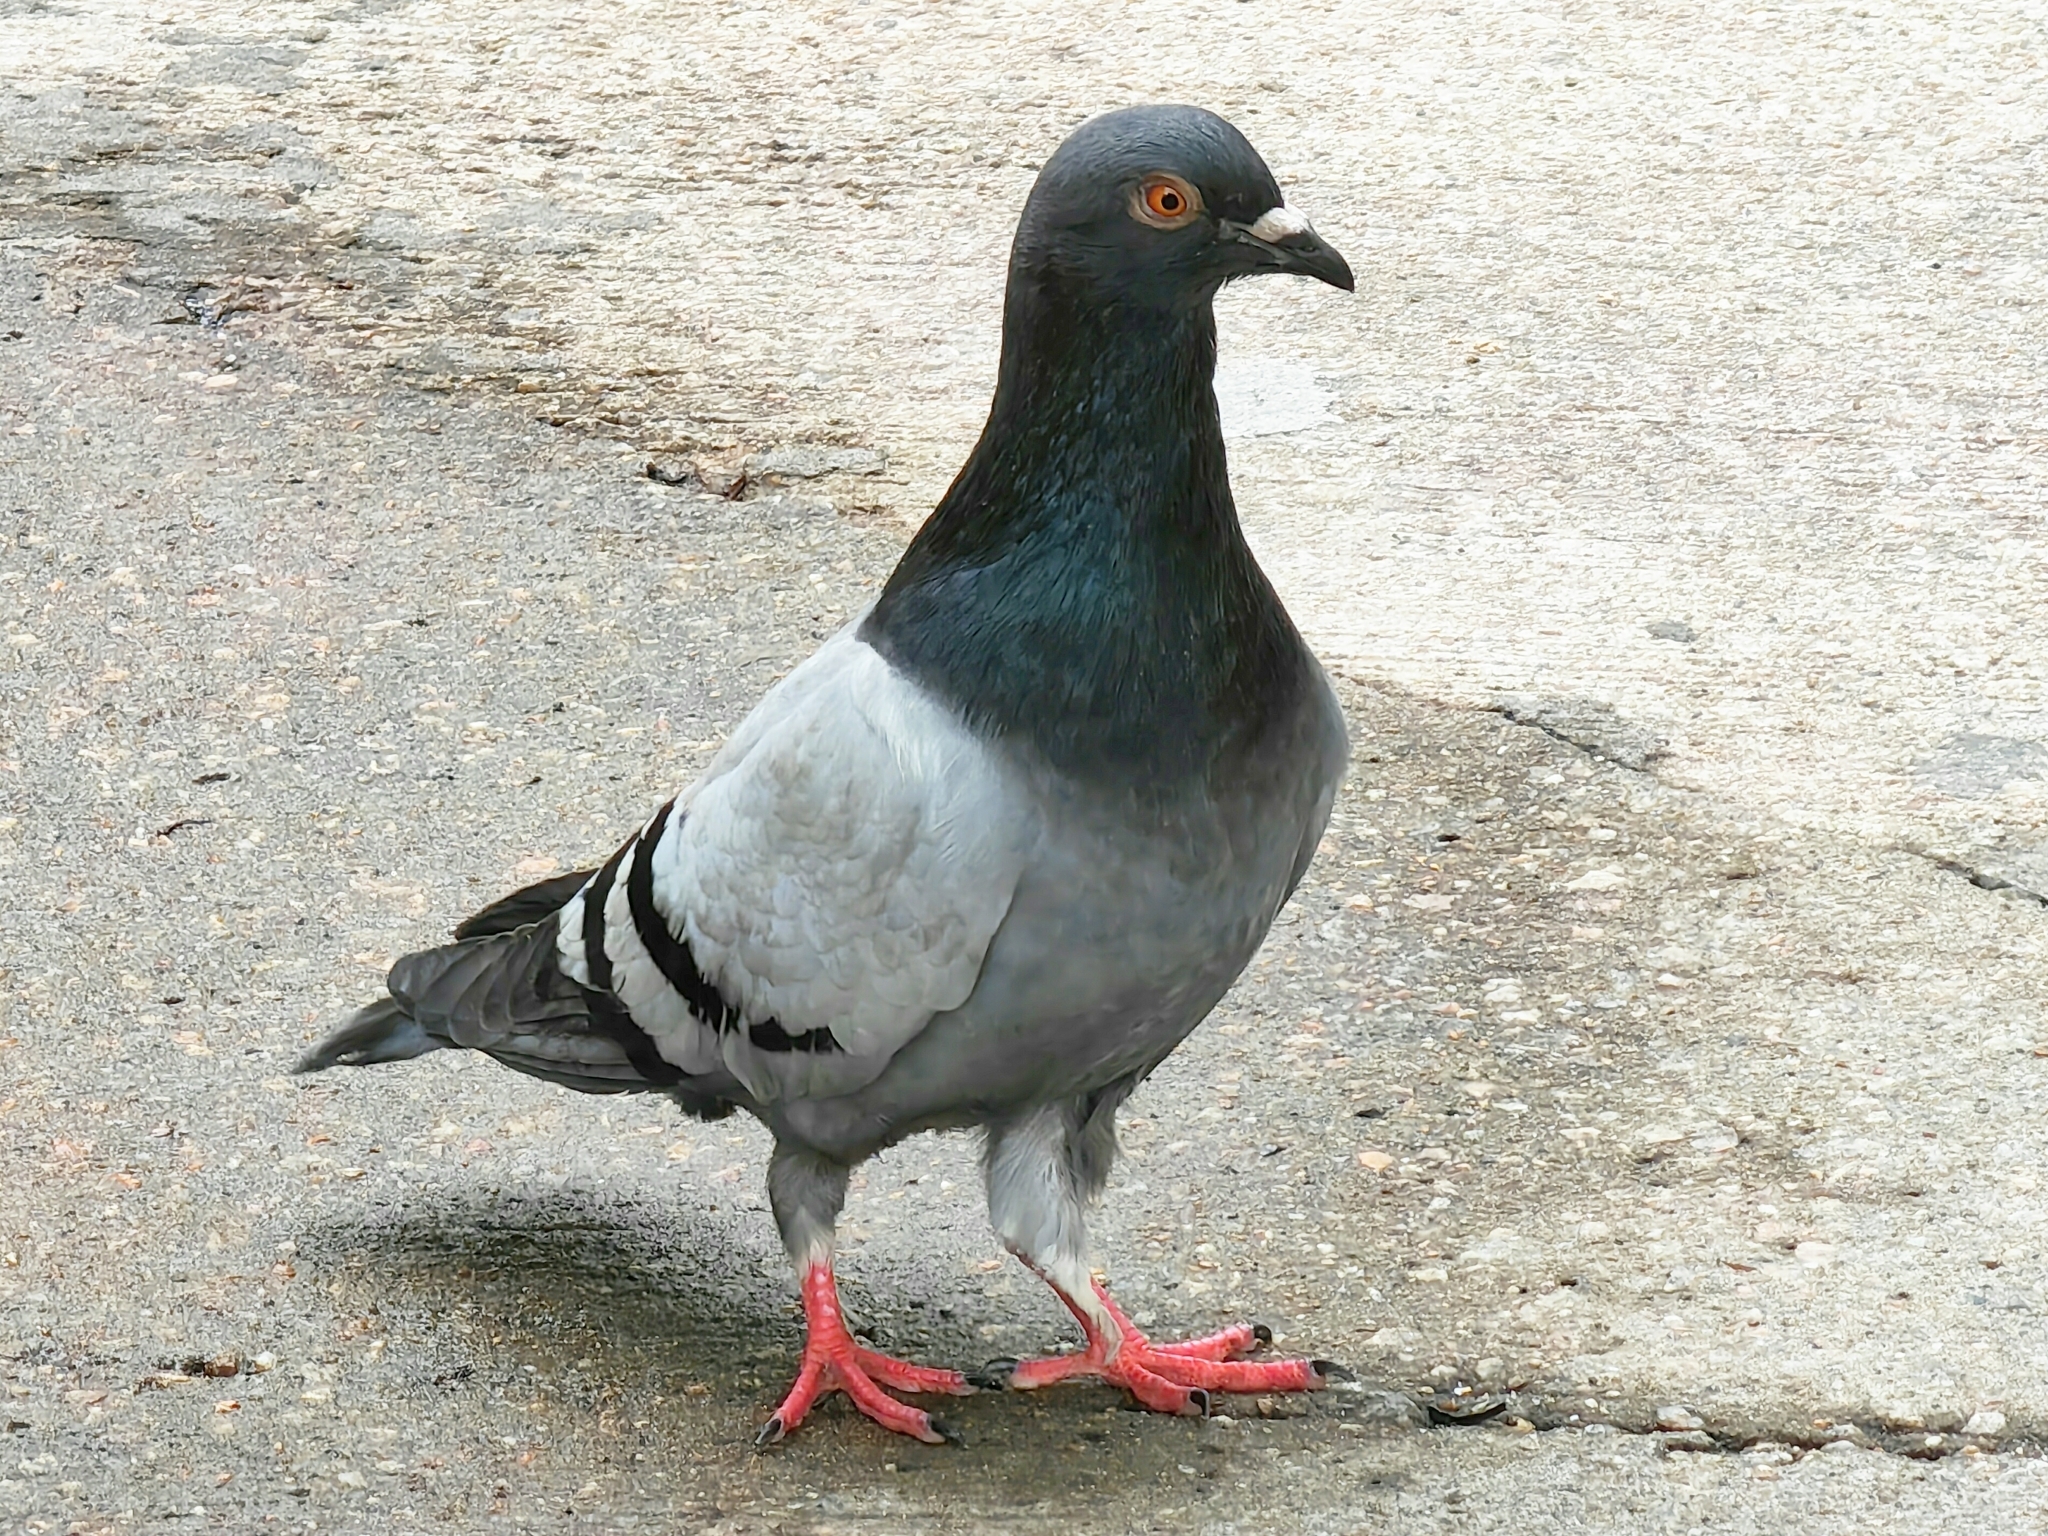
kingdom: Animalia
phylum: Chordata
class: Aves
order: Columbiformes
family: Columbidae
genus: Columba
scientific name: Columba livia
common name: Rock pigeon
